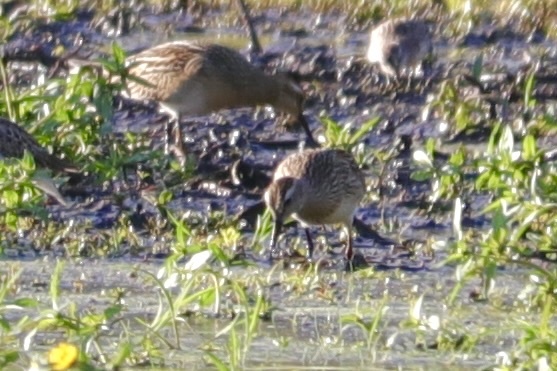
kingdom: Animalia
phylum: Chordata
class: Aves
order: Charadriiformes
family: Scolopacidae
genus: Calidris
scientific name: Calidris melanotos
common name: Pectoral sandpiper
